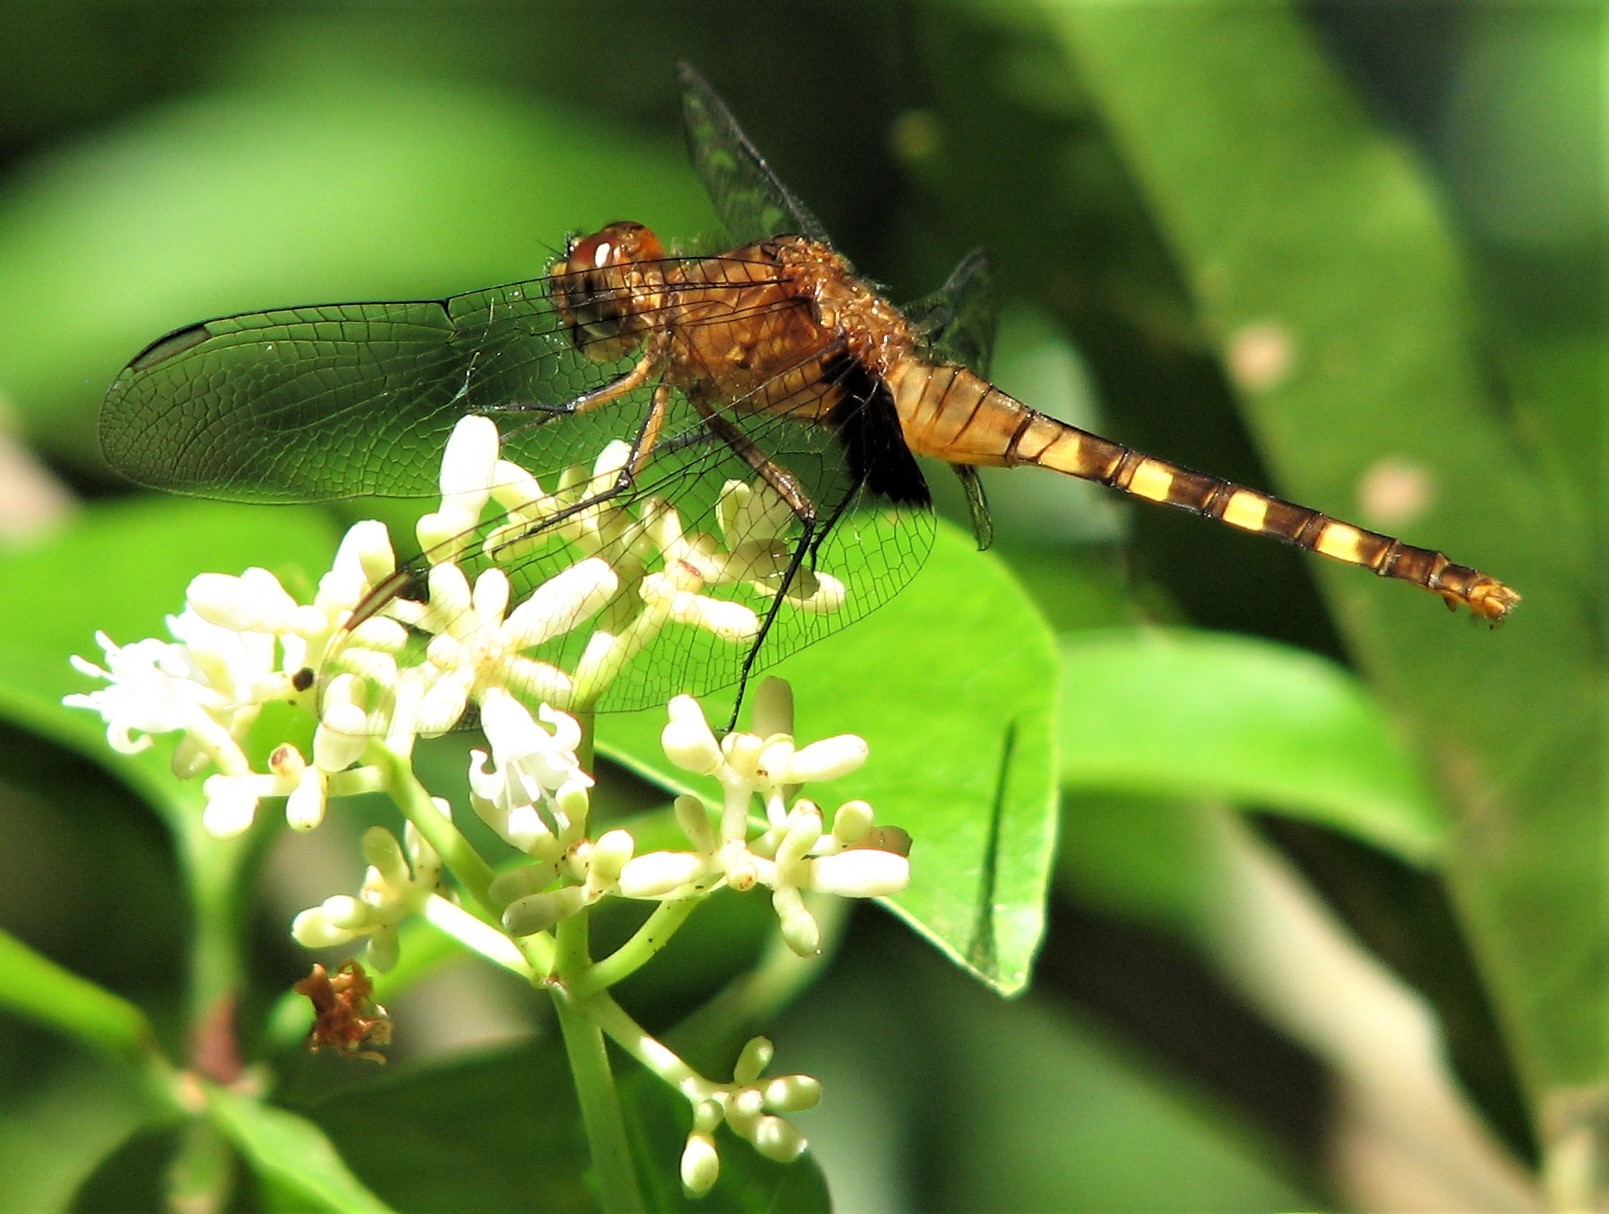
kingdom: Animalia
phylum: Arthropoda
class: Insecta
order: Odonata
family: Libellulidae
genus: Erythemis
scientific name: Erythemis attala
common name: Black pondhawk
